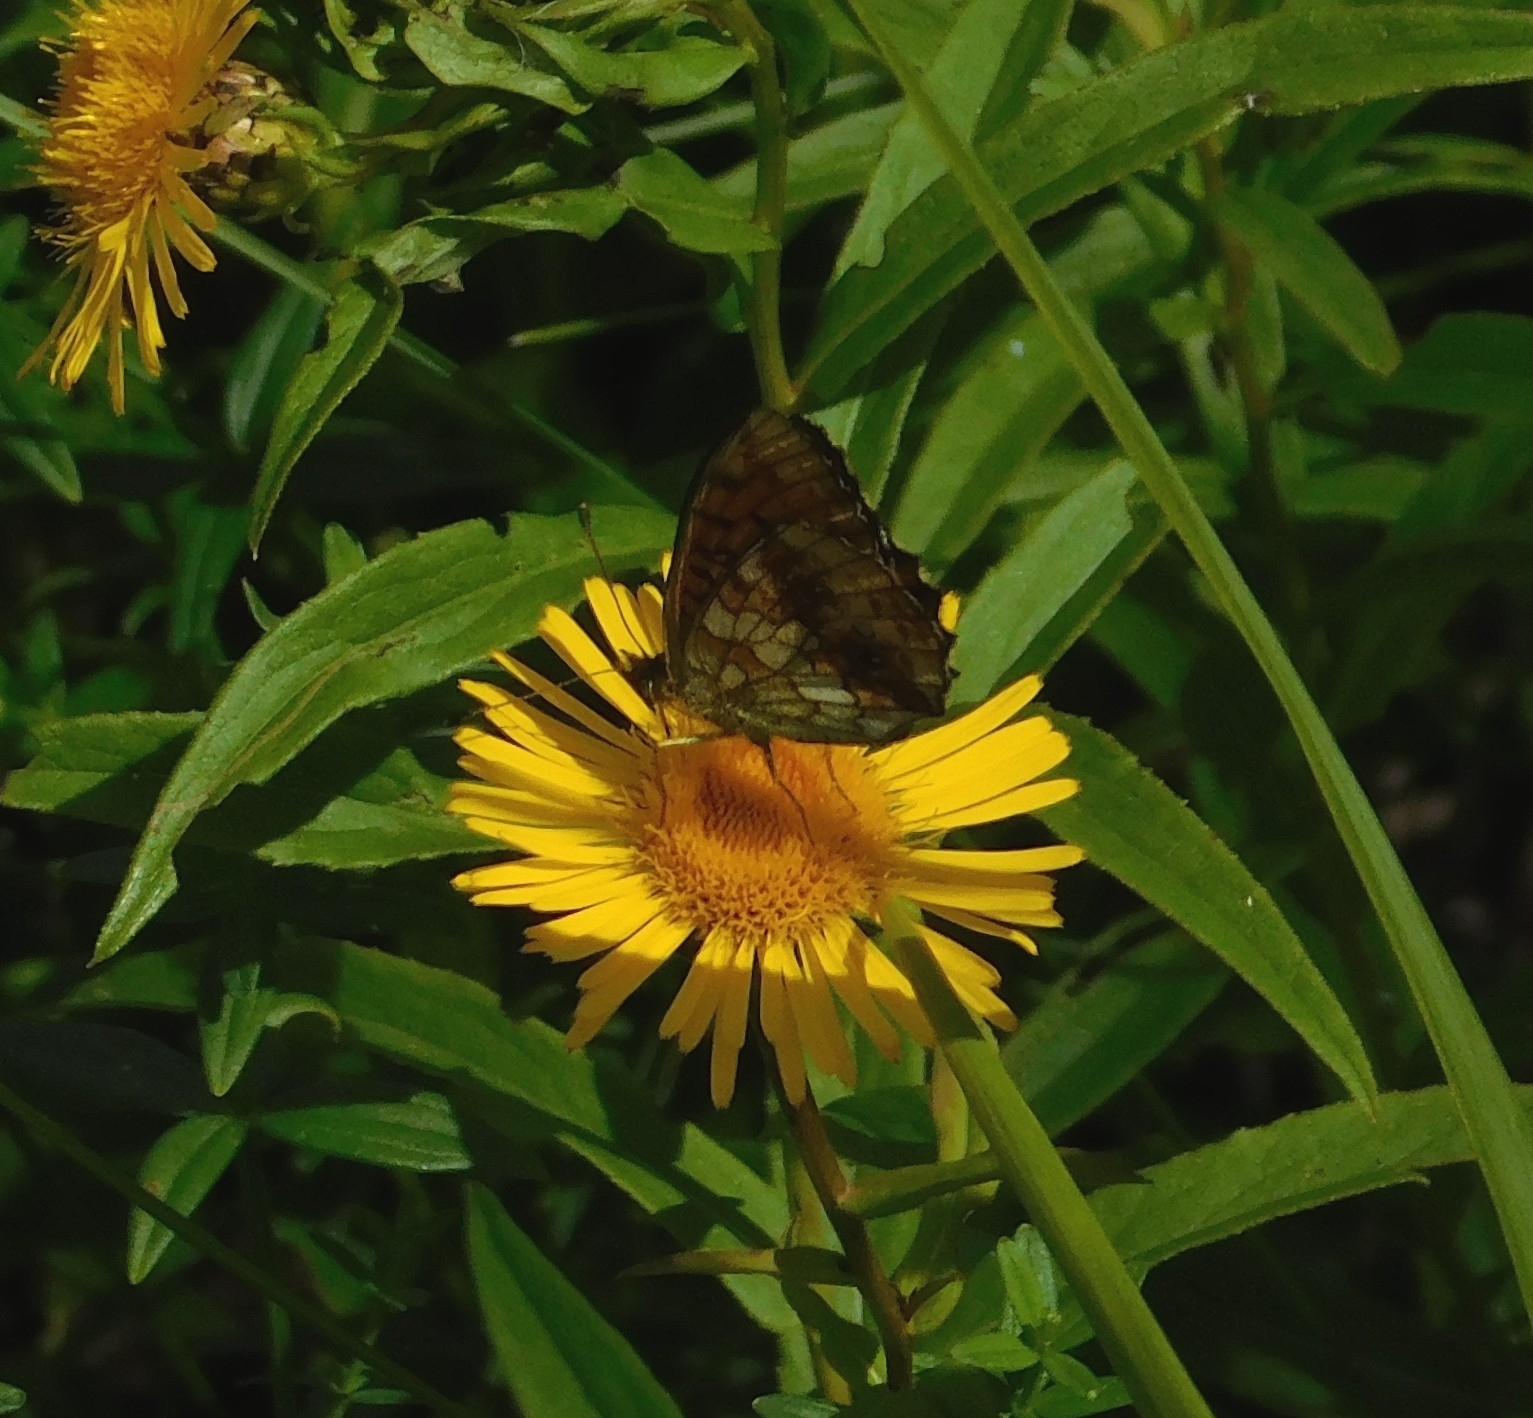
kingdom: Animalia
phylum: Arthropoda
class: Insecta
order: Lepidoptera
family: Nymphalidae
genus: Brenthis
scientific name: Brenthis daphne
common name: Marbled fritillary
